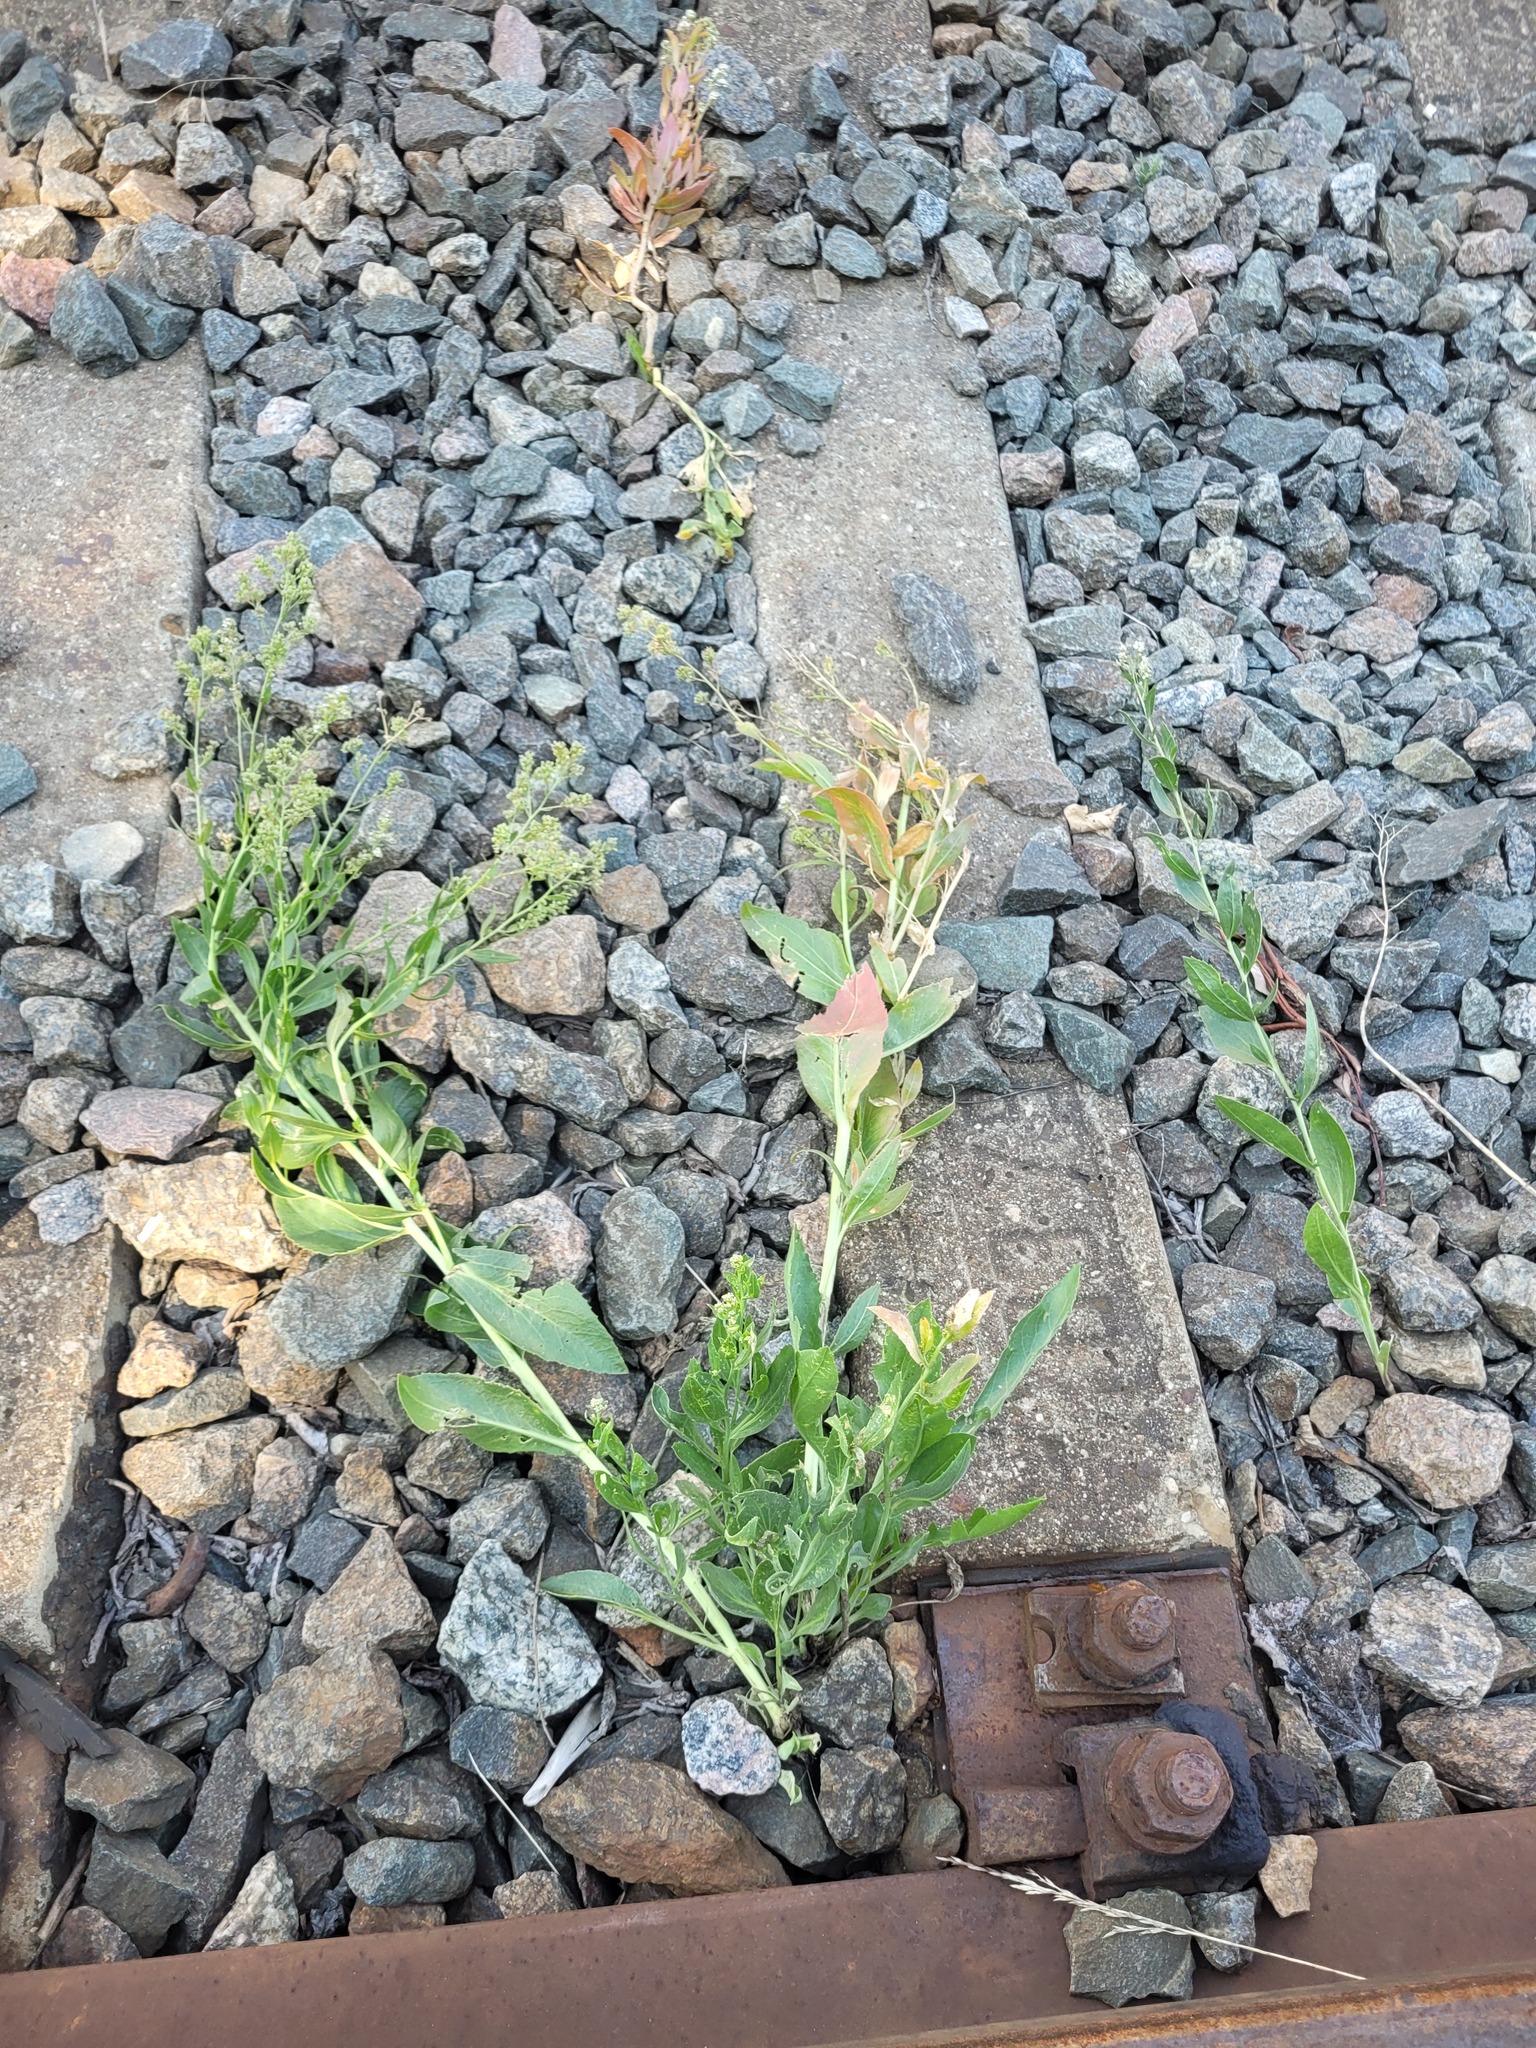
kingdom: Plantae
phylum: Tracheophyta
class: Magnoliopsida
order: Brassicales
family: Brassicaceae
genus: Lepidium
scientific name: Lepidium latifolium
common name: Dittander
